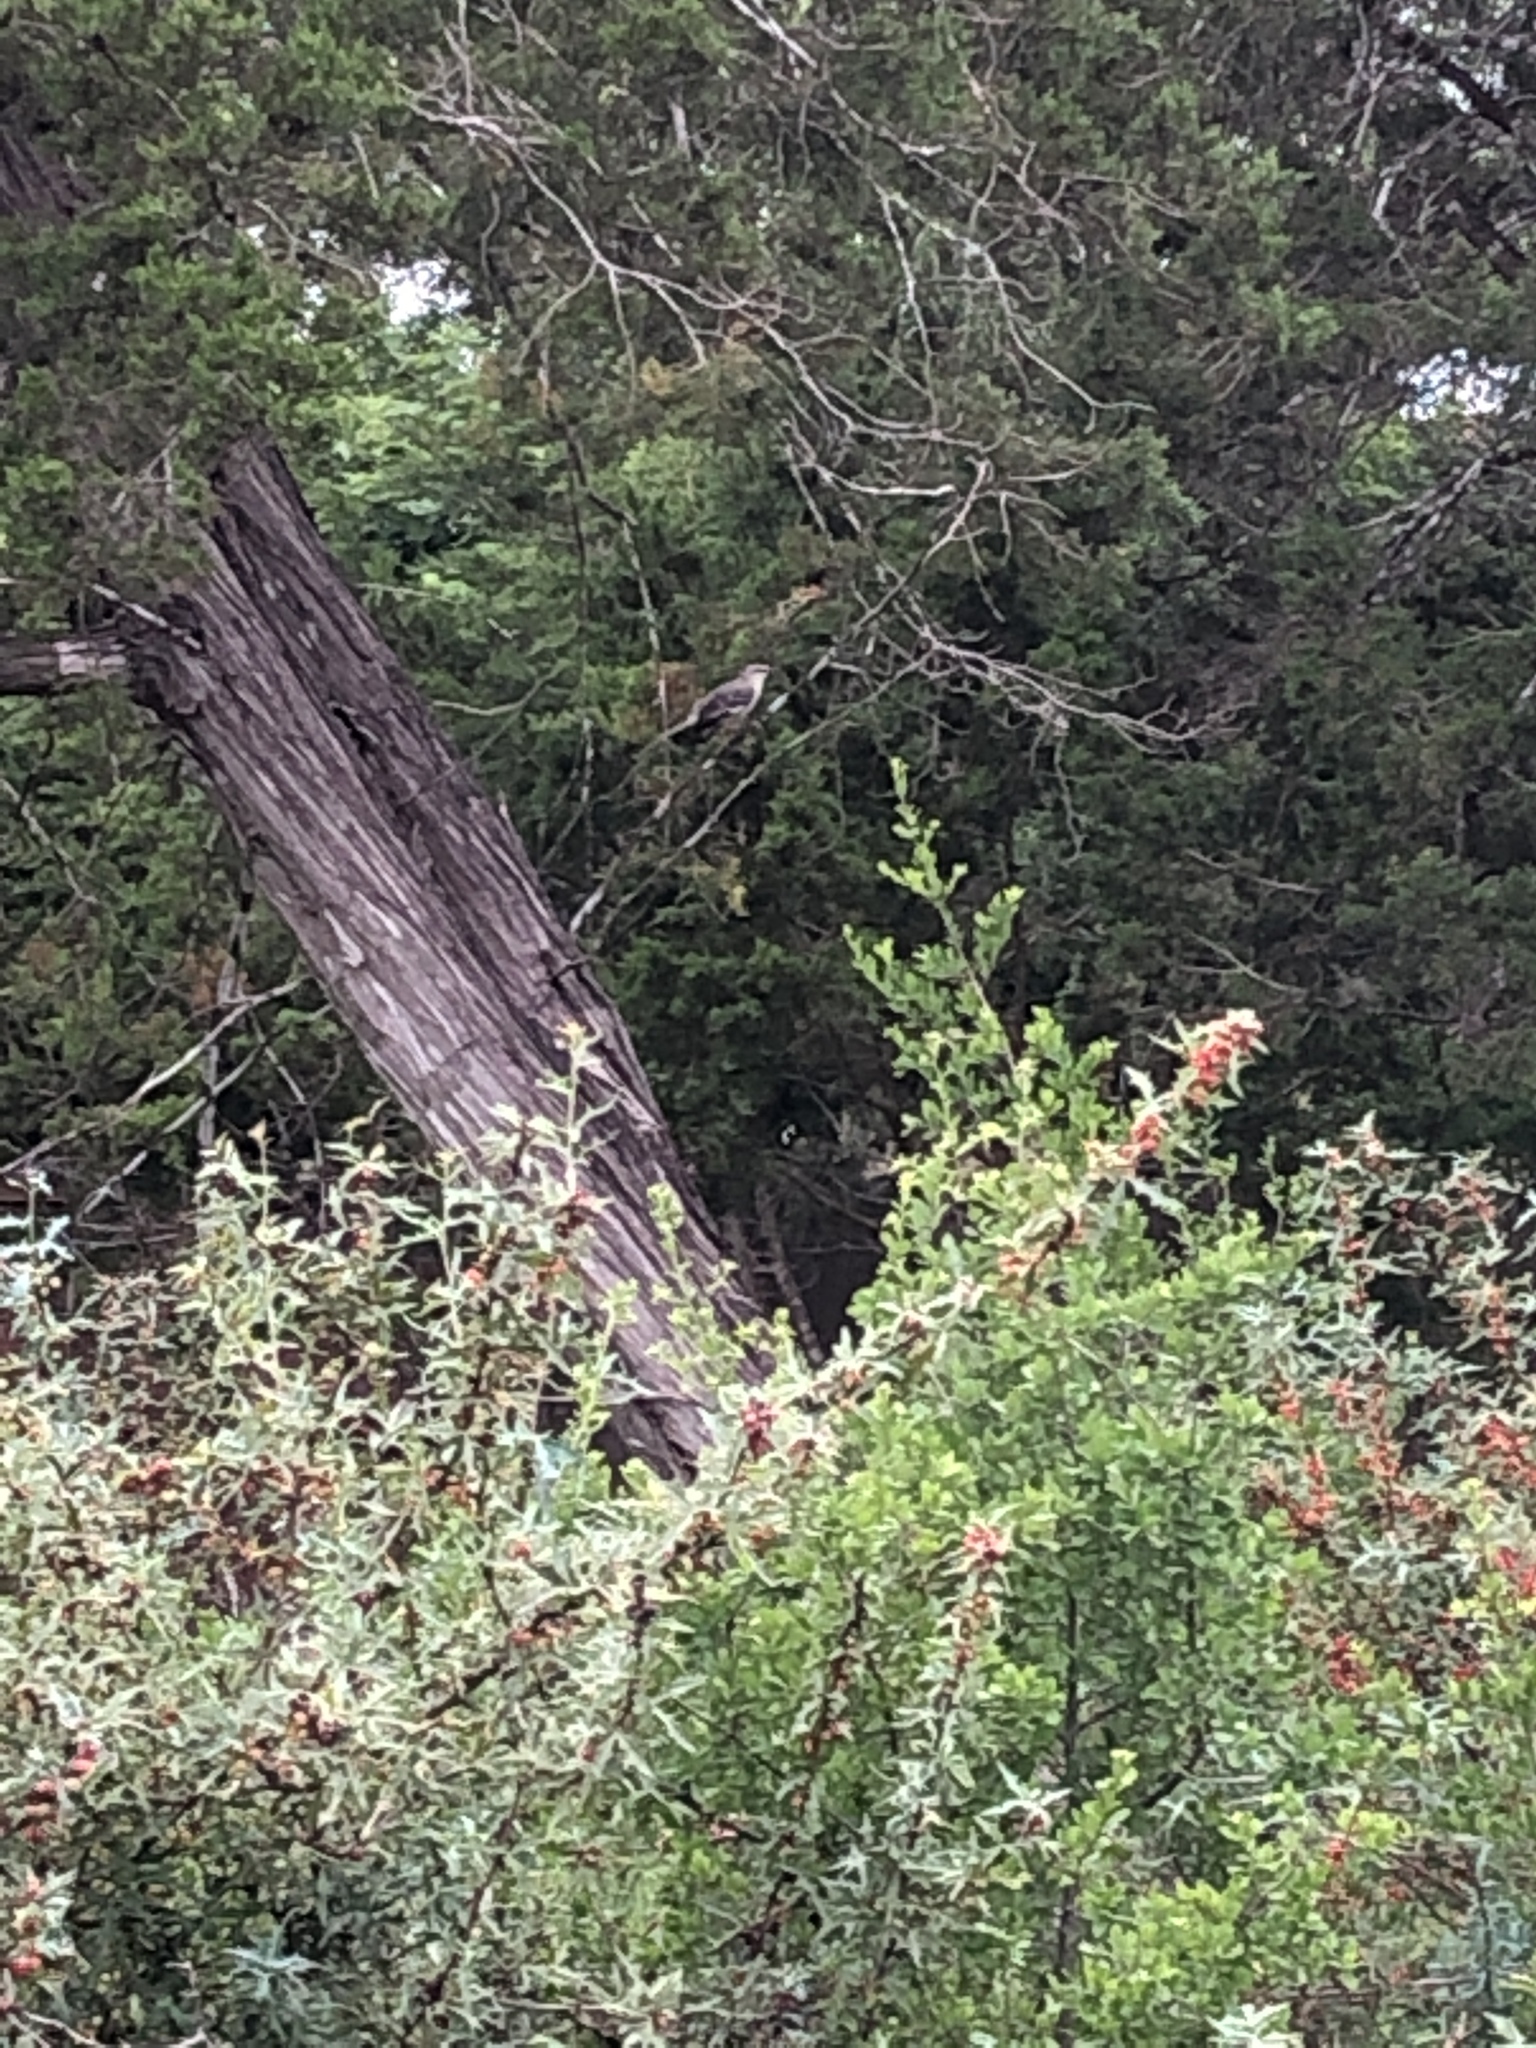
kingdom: Animalia
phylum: Chordata
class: Aves
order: Passeriformes
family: Mimidae
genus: Mimus
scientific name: Mimus polyglottos
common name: Northern mockingbird
